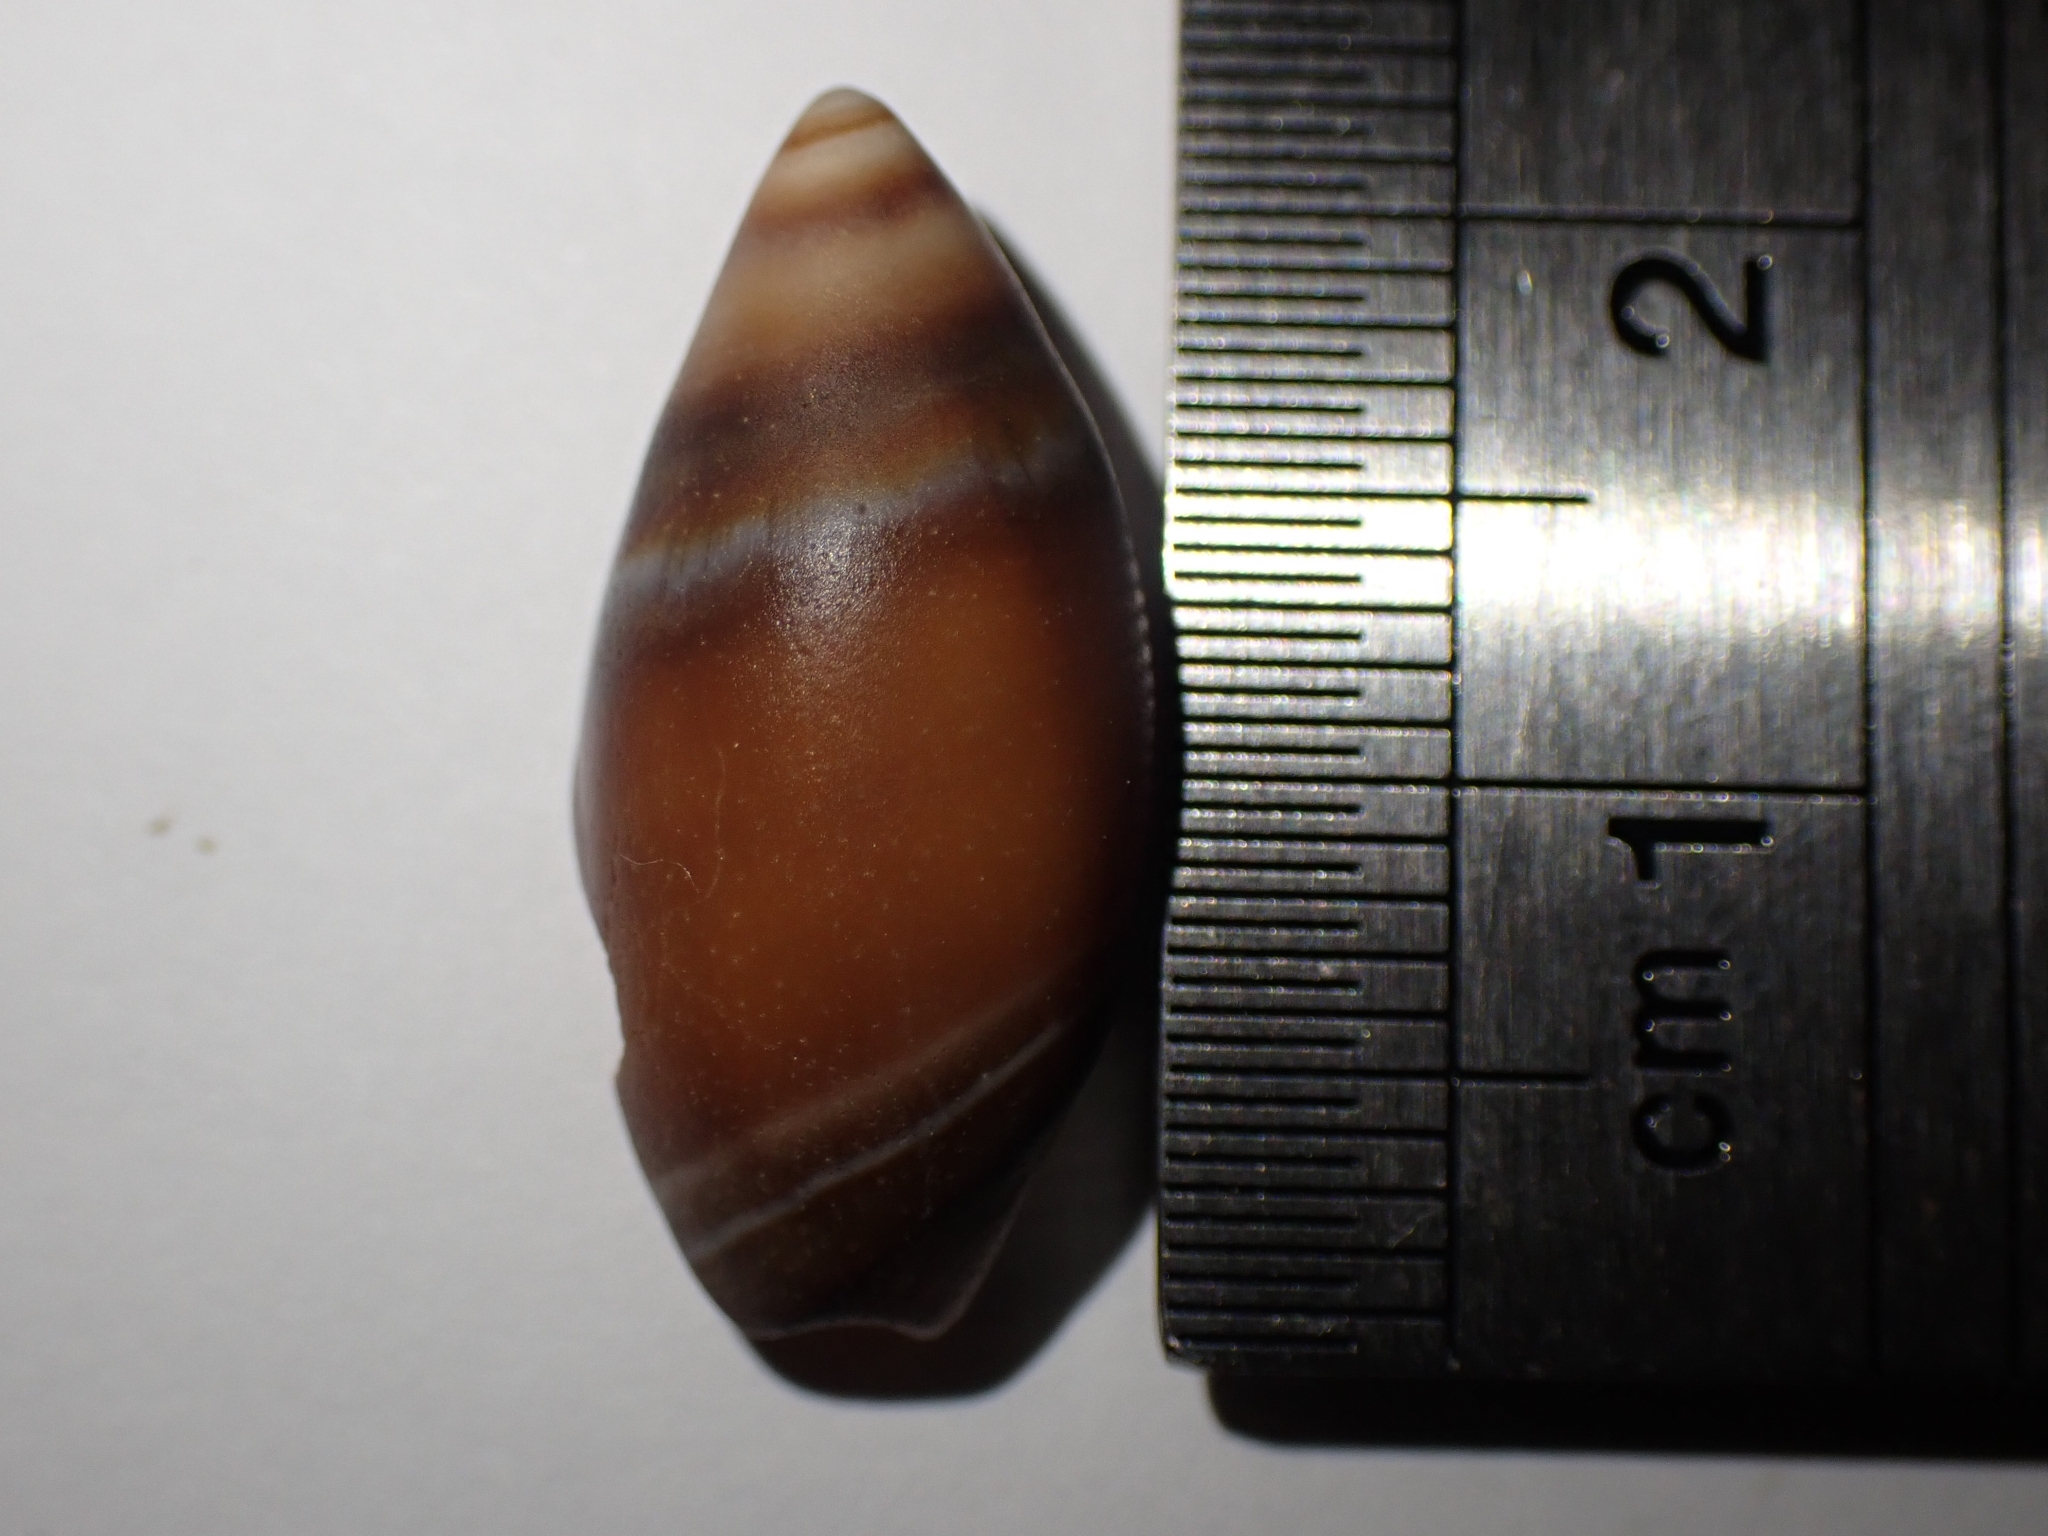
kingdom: Animalia
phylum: Mollusca
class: Gastropoda
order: Neogastropoda
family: Ancillariidae
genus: Amalda
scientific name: Amalda australis
